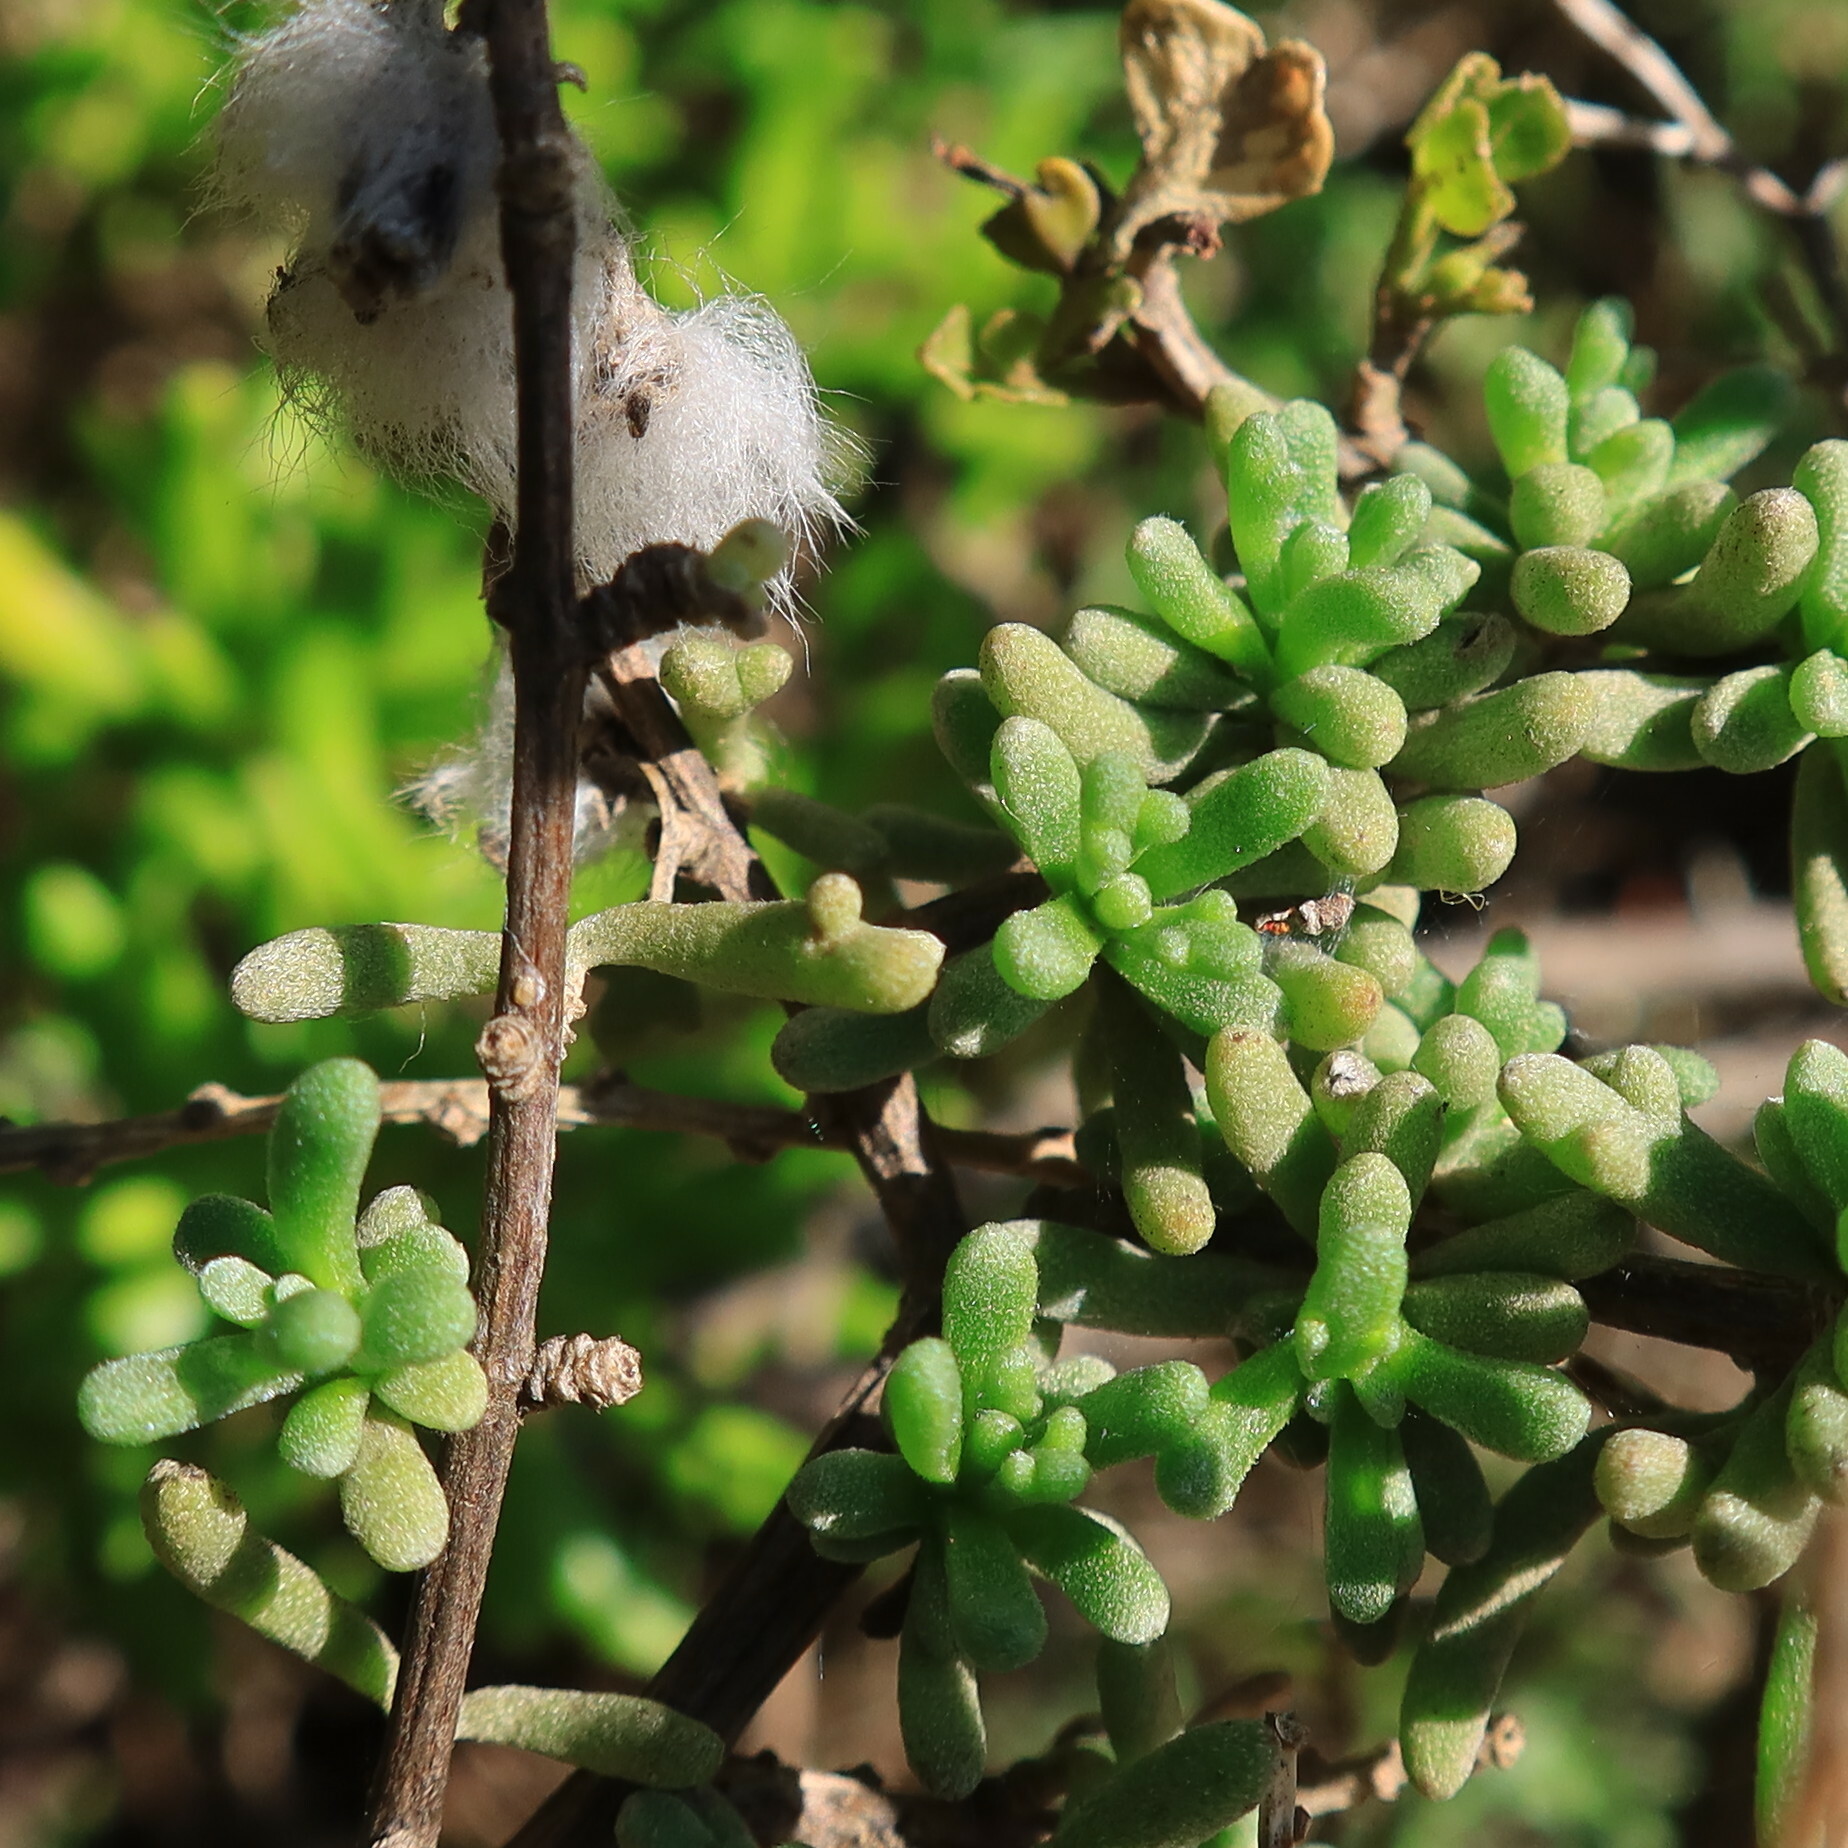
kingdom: Plantae
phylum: Tracheophyta
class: Magnoliopsida
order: Asterales
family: Asteraceae
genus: Eriocephalus
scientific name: Eriocephalus africanus
